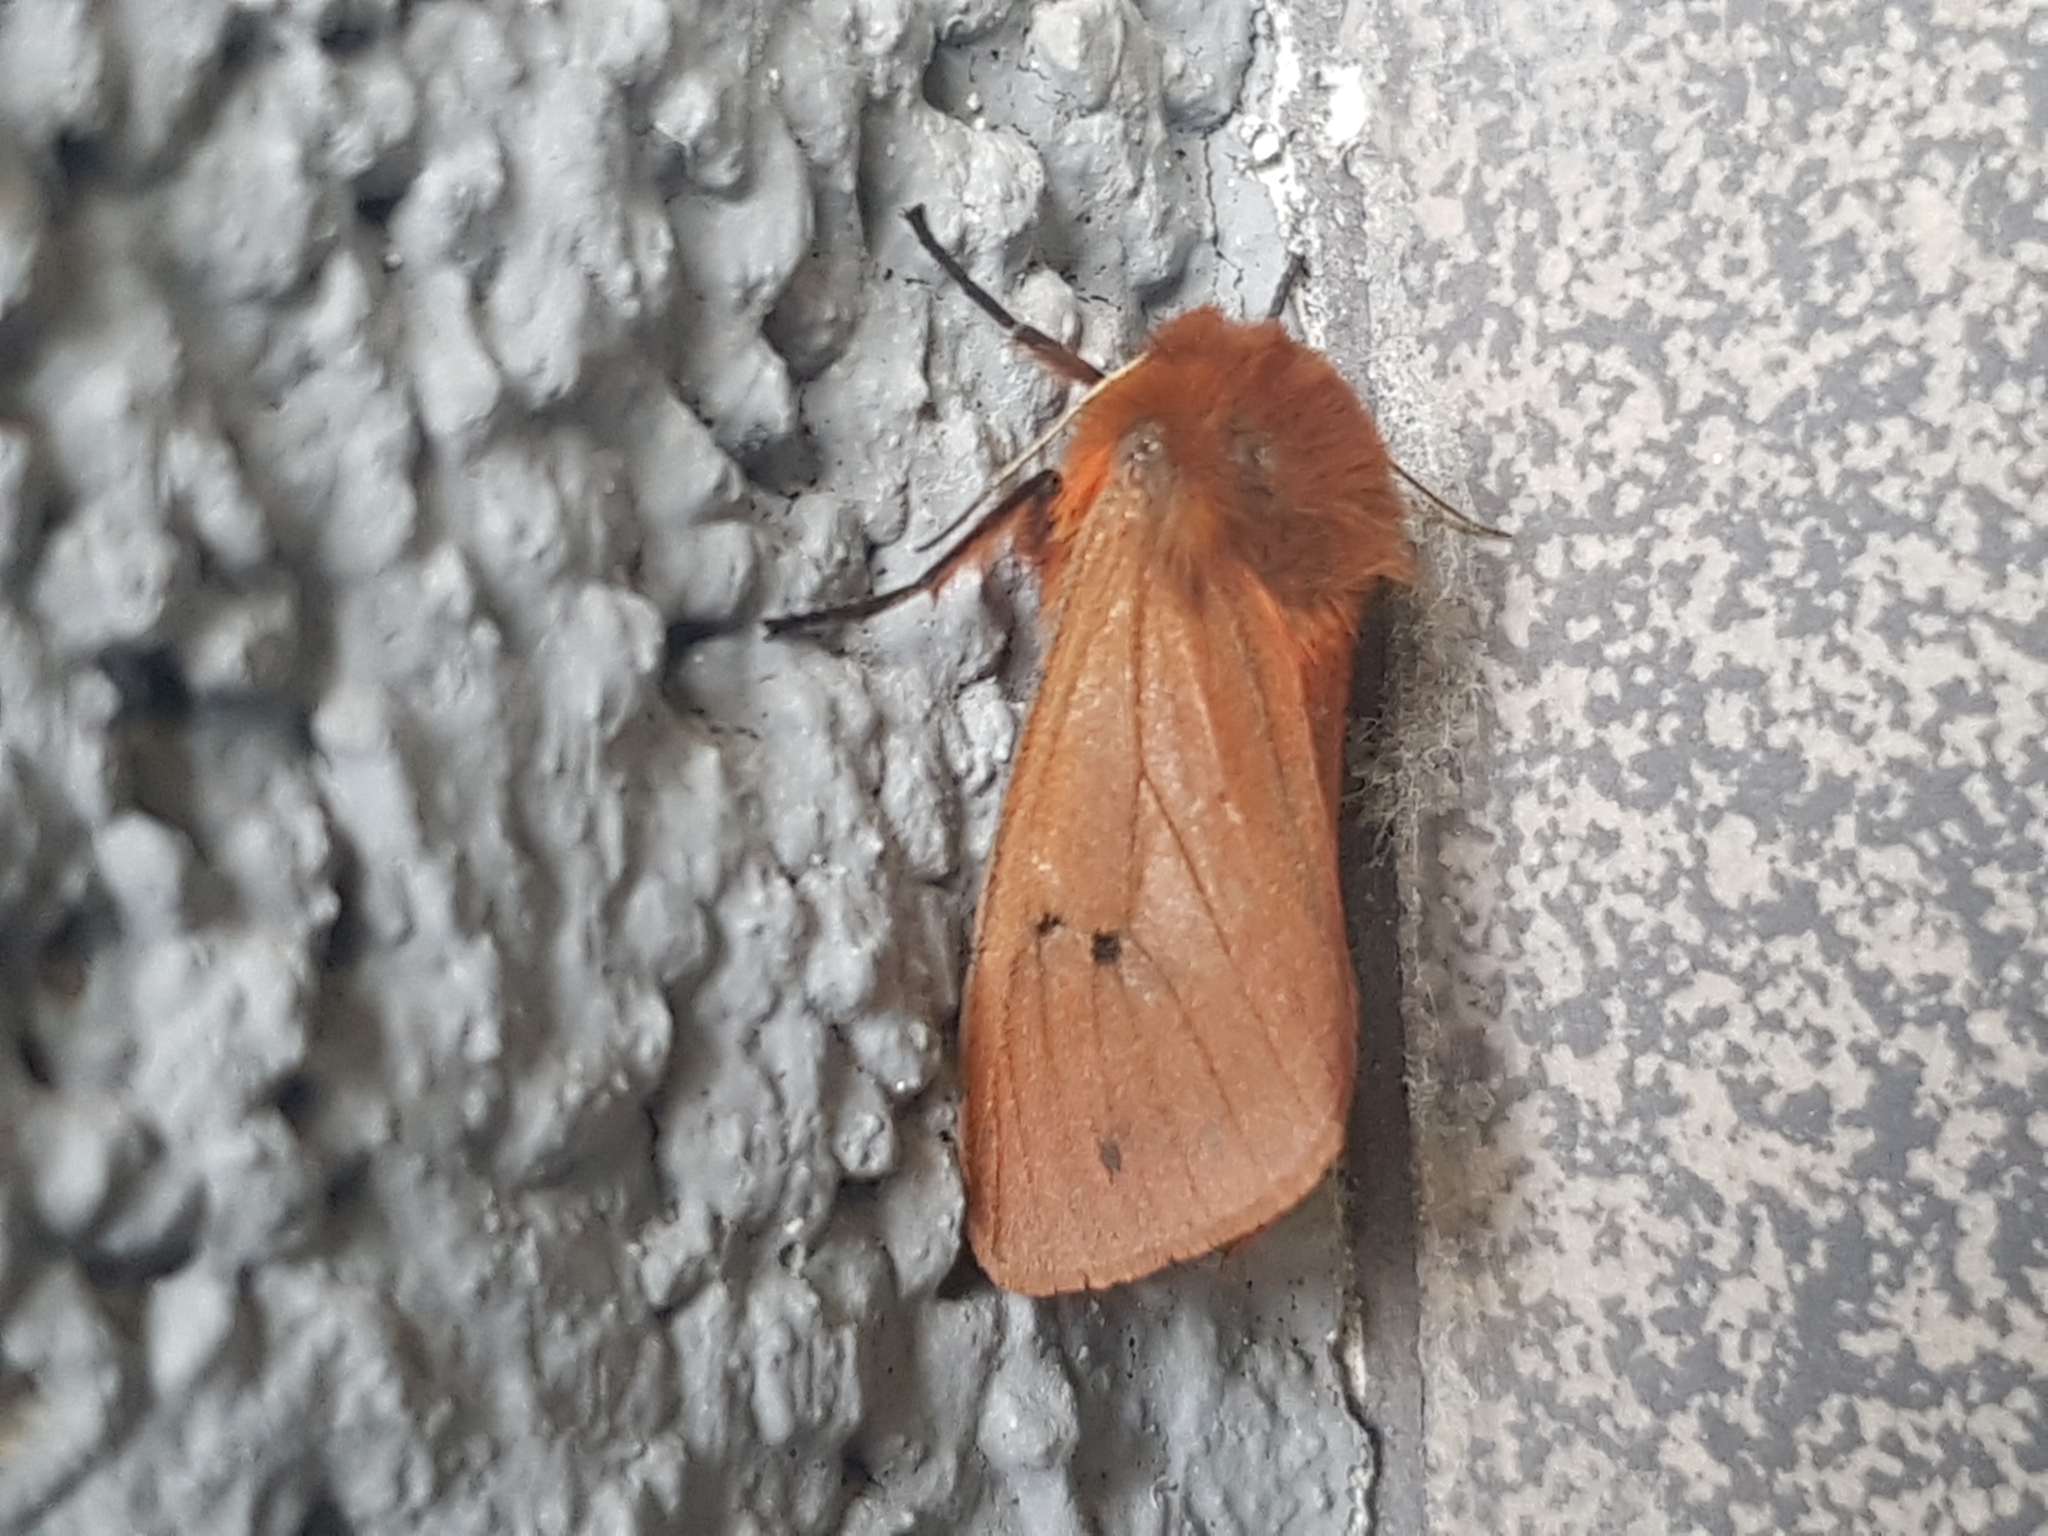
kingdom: Animalia
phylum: Arthropoda
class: Insecta
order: Lepidoptera
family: Erebidae
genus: Phragmatobia
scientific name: Phragmatobia fuliginosa
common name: Ruby tiger
